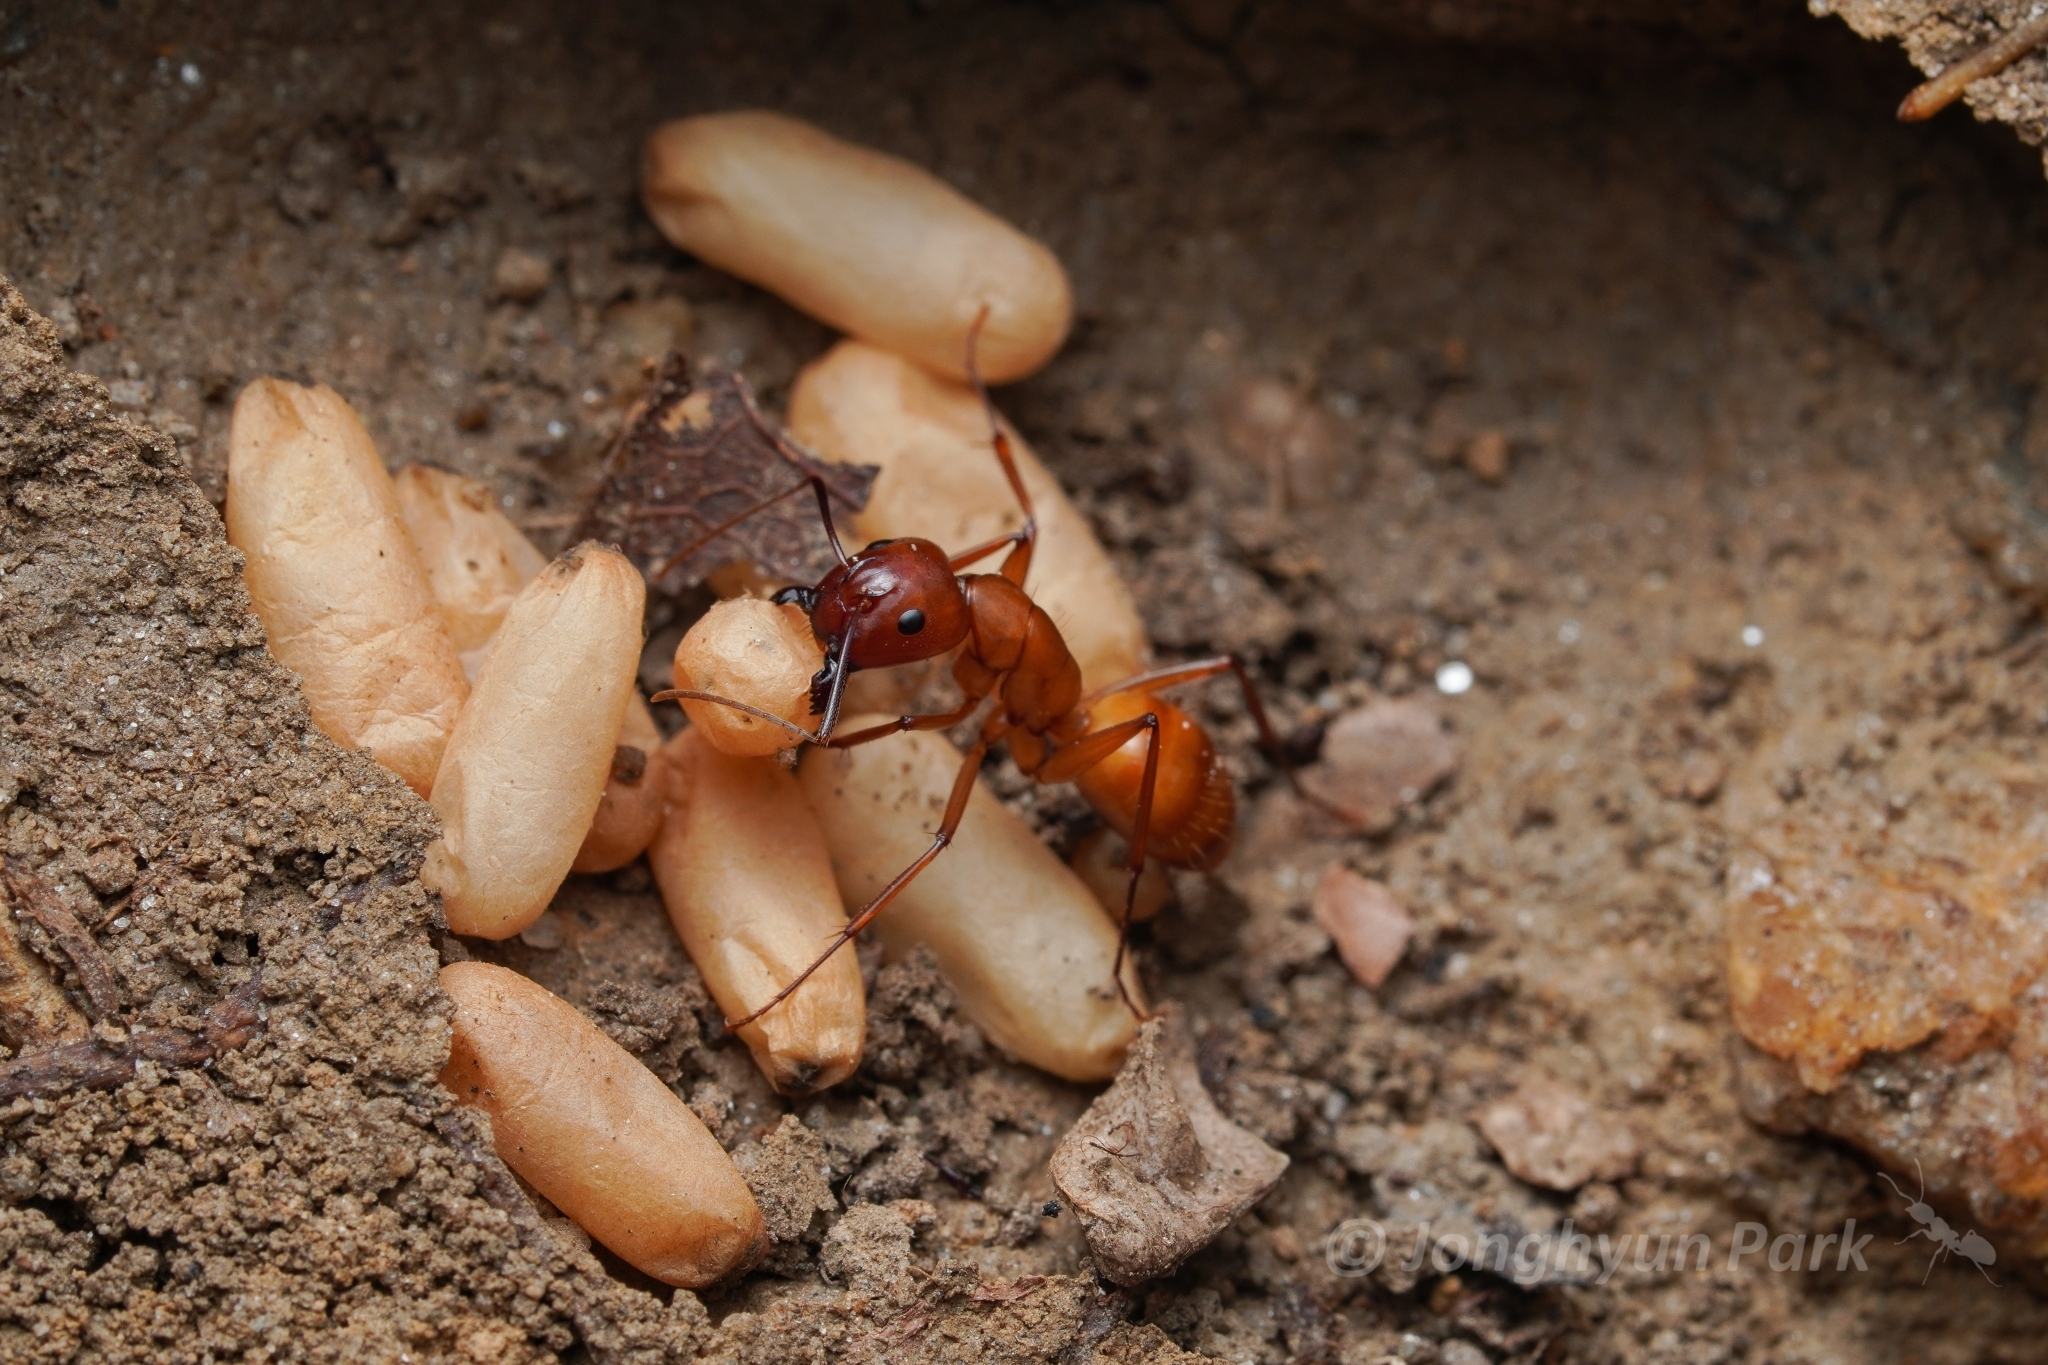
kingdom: Animalia
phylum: Arthropoda
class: Insecta
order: Hymenoptera
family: Formicidae
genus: Camponotus
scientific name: Camponotus castaneus
